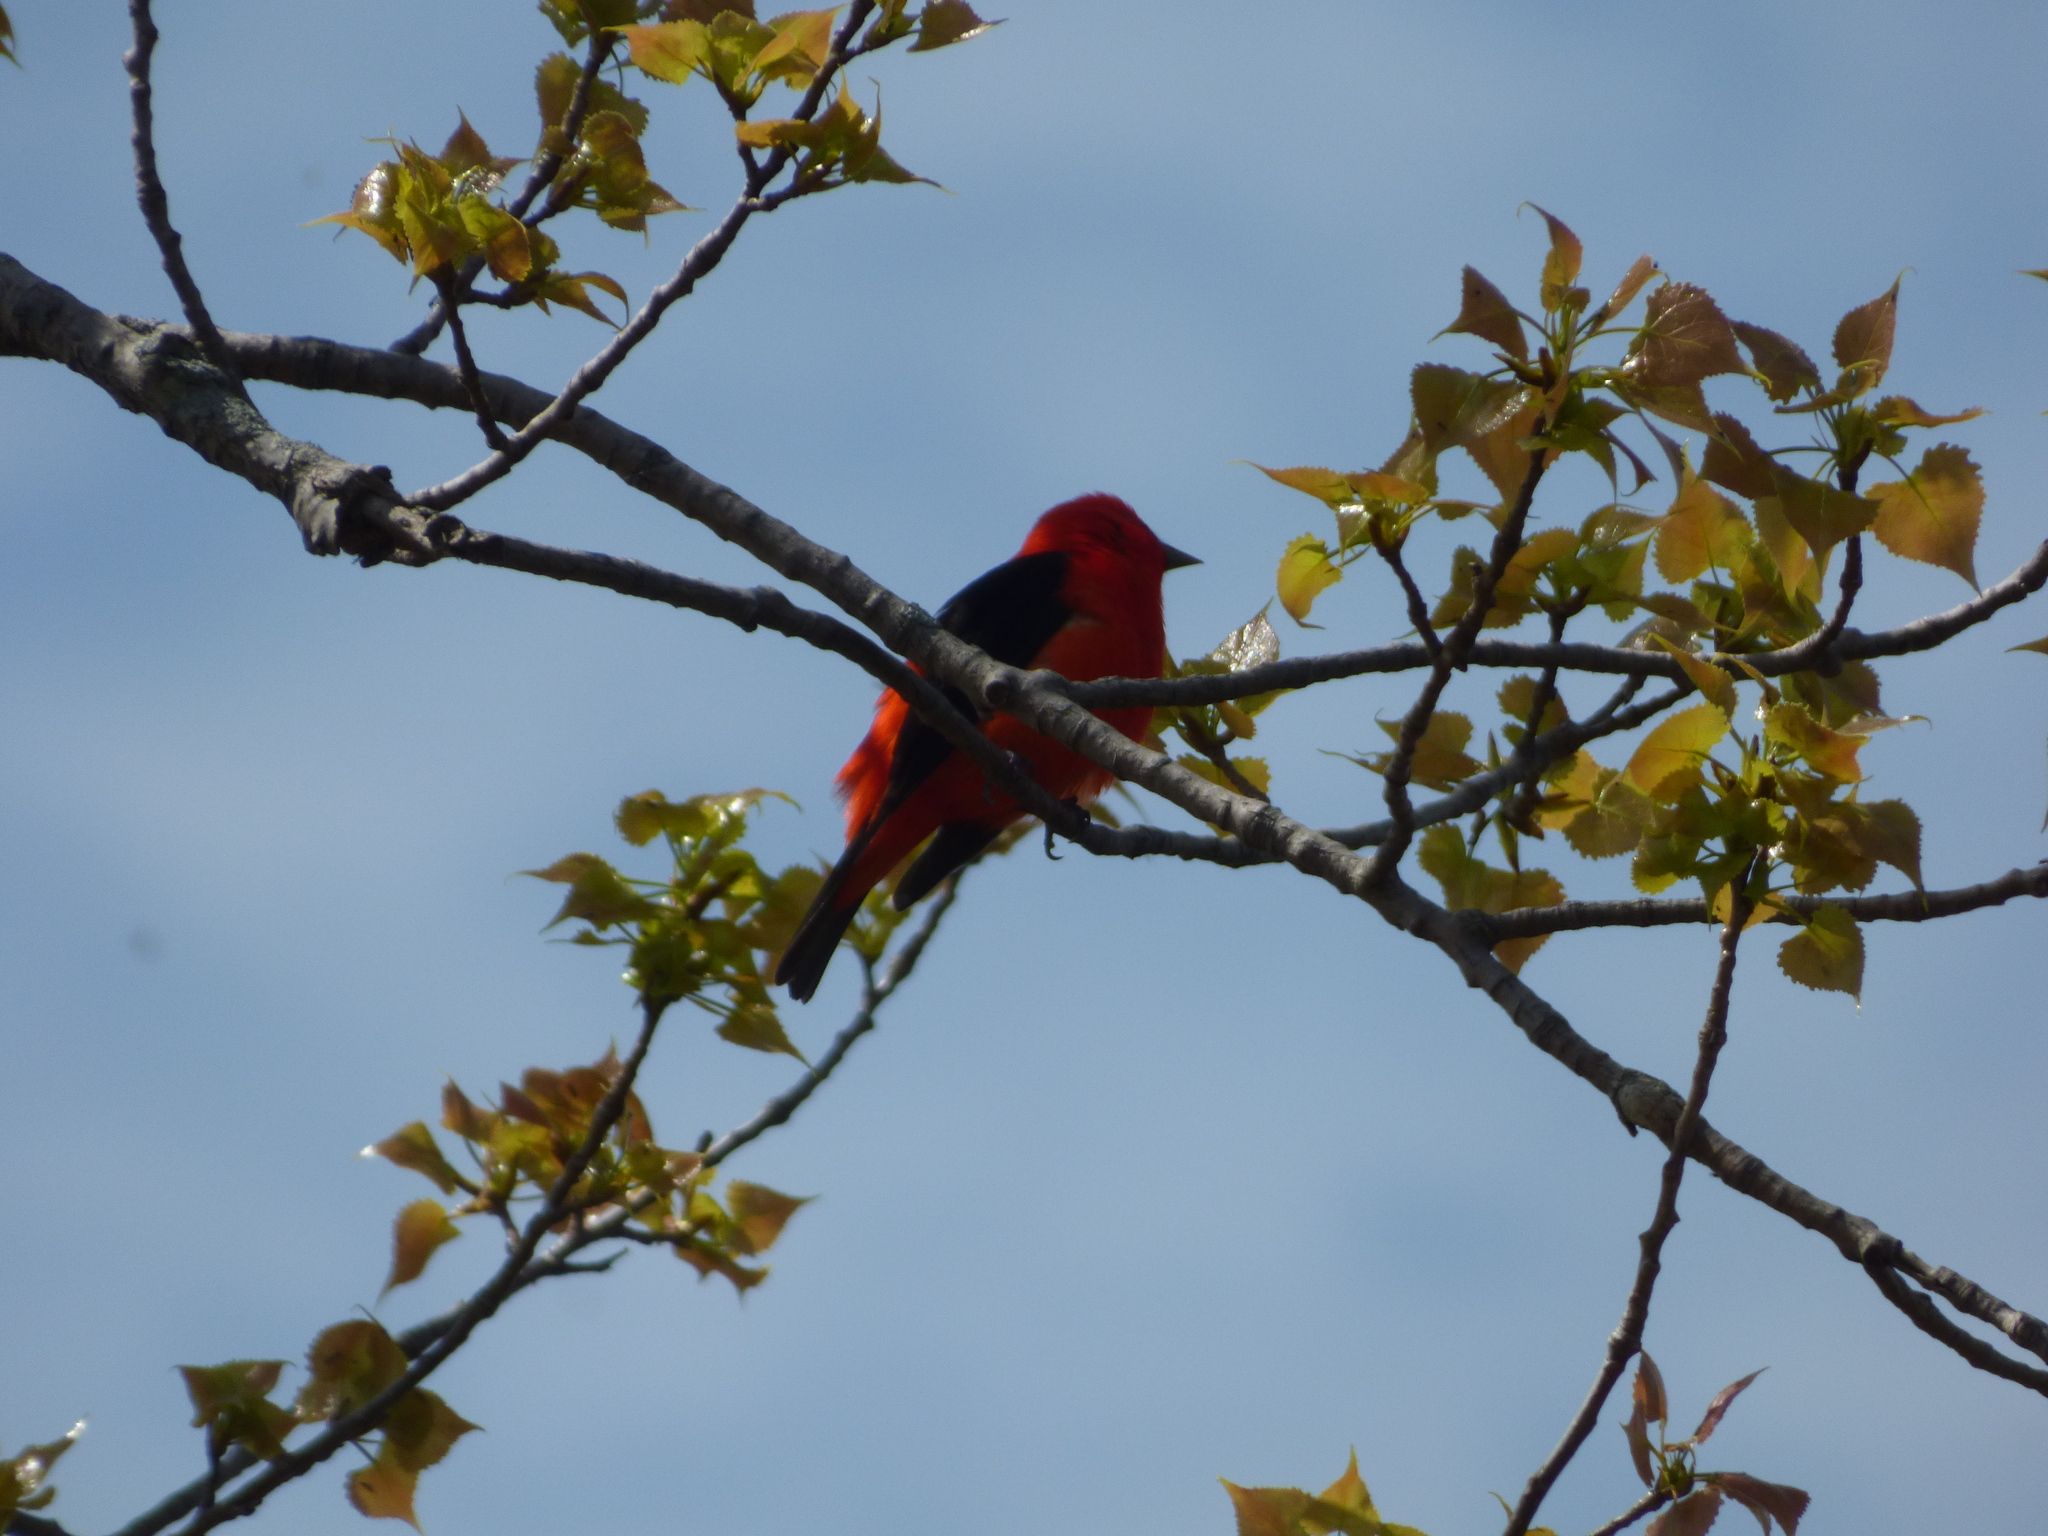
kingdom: Animalia
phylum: Chordata
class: Aves
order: Passeriformes
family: Cardinalidae
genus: Piranga
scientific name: Piranga olivacea
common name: Scarlet tanager
